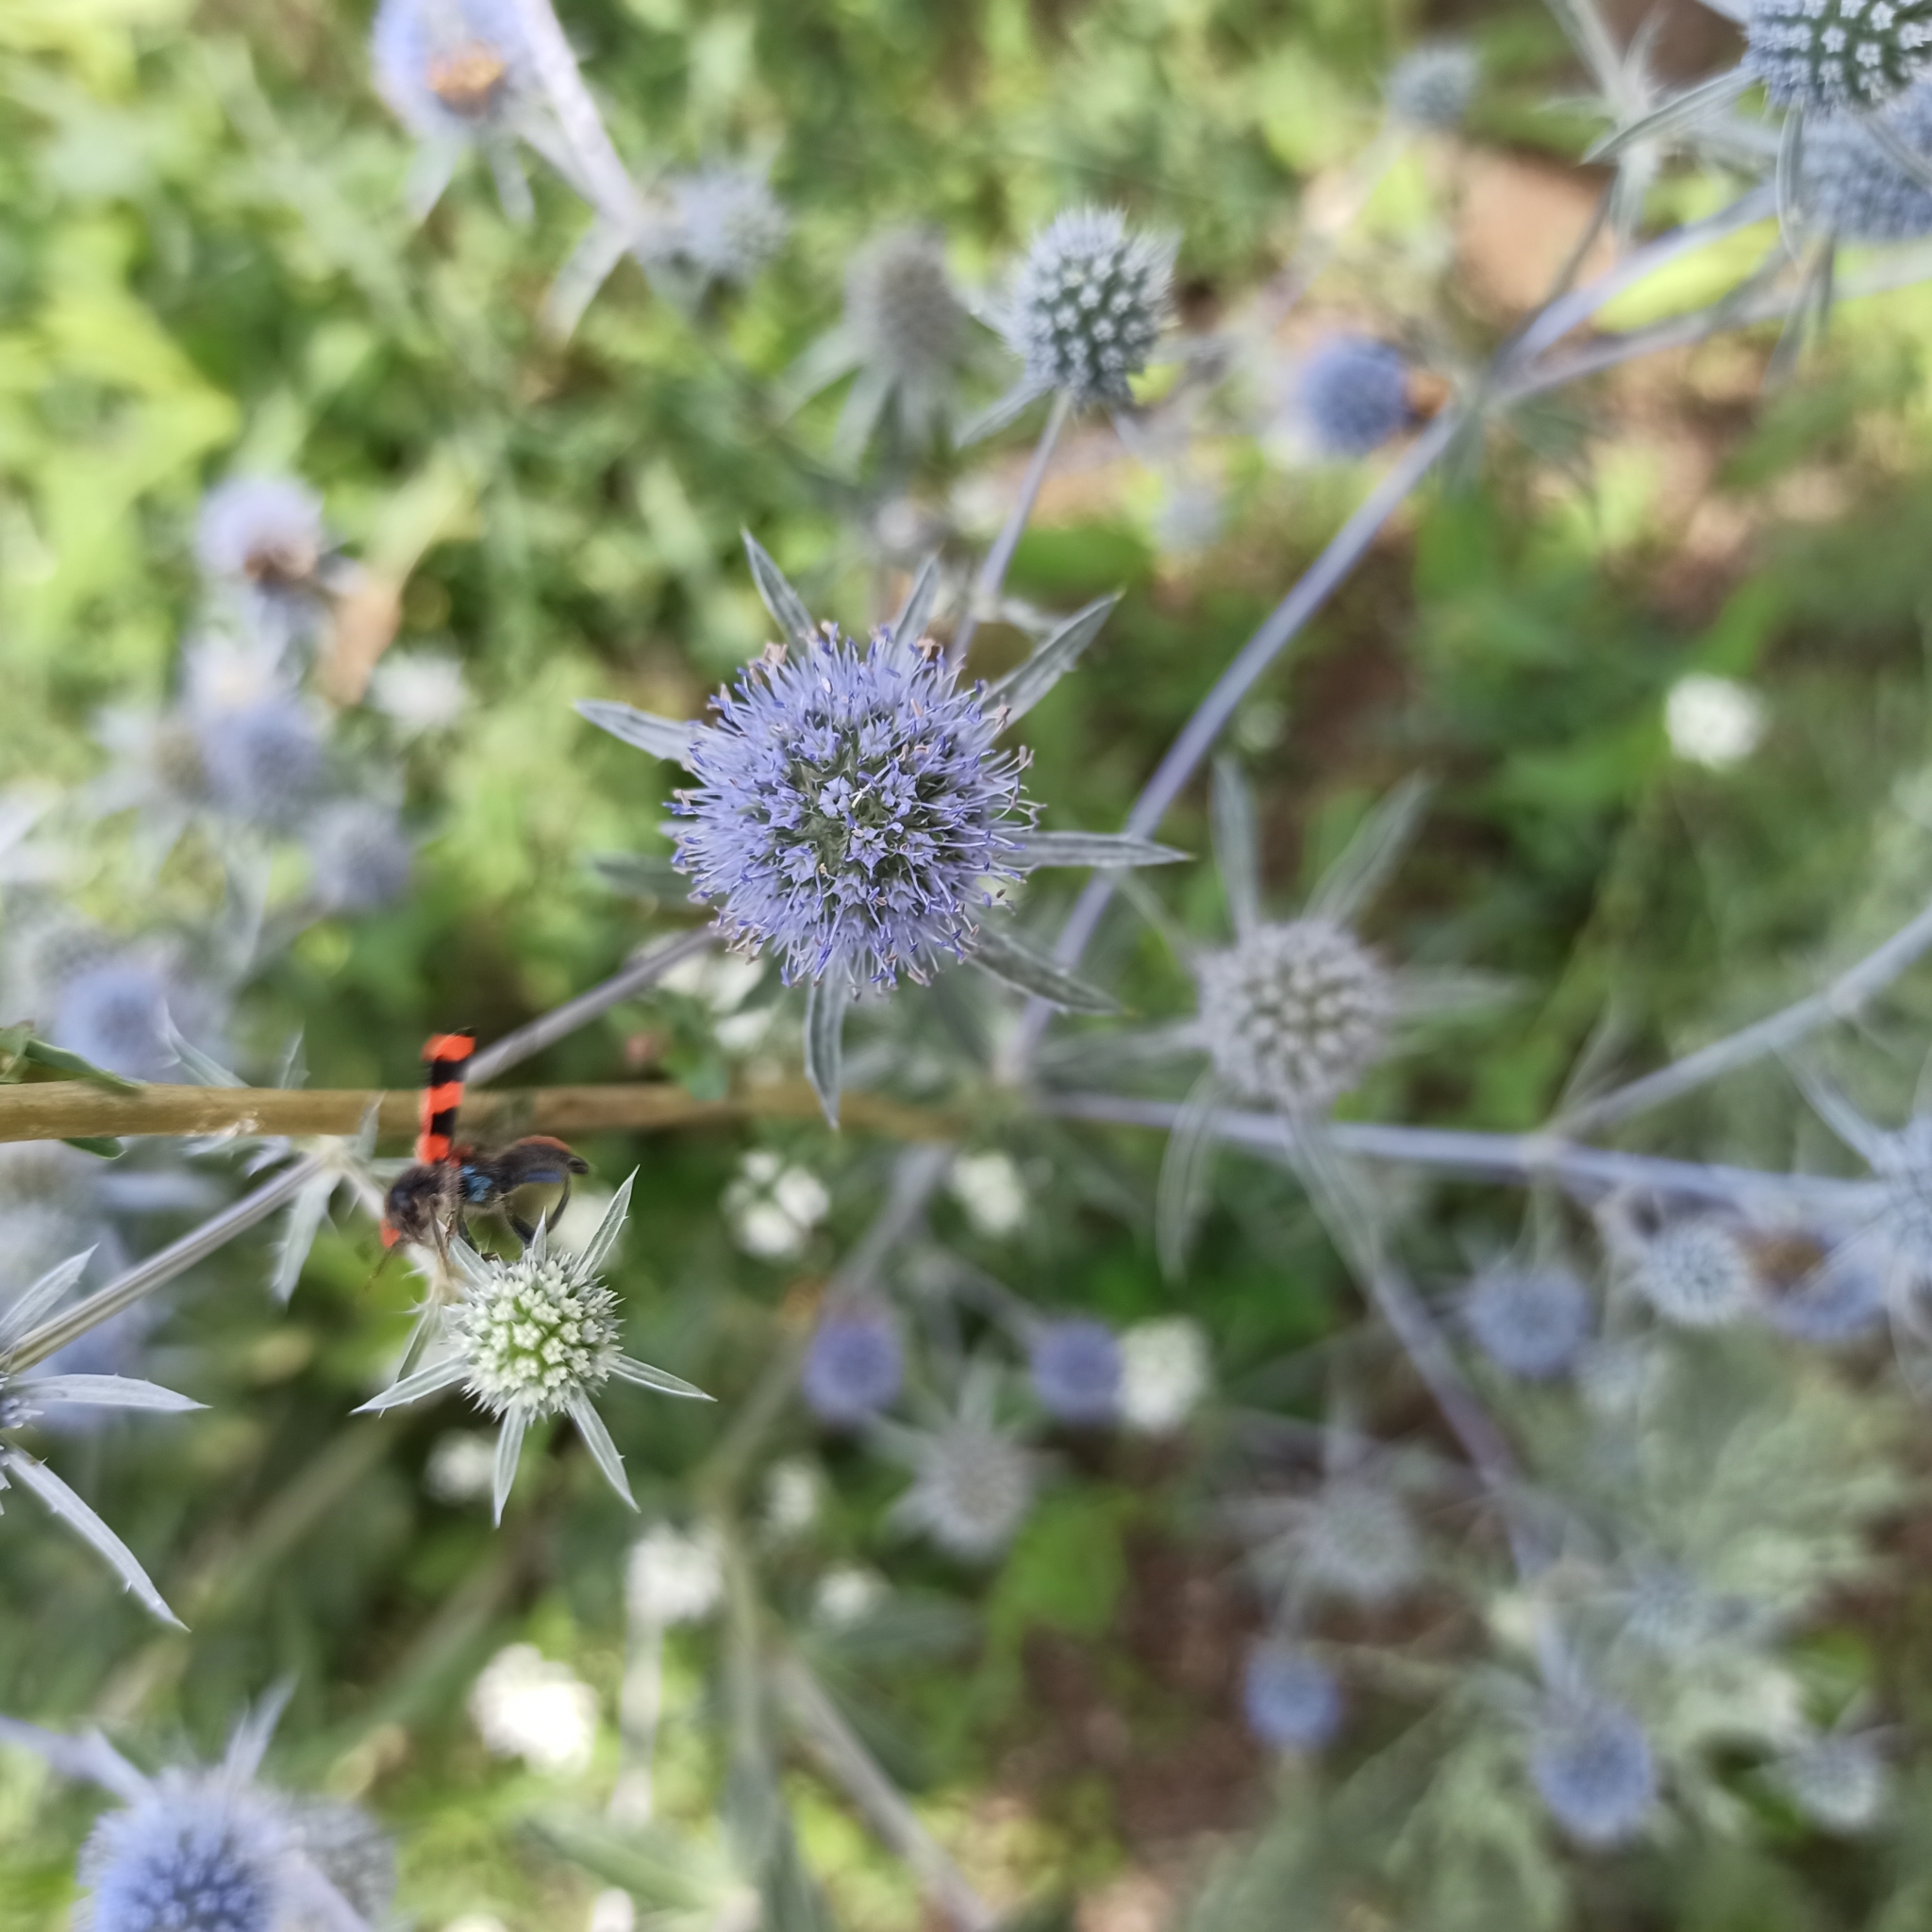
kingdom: Plantae
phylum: Tracheophyta
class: Magnoliopsida
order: Apiales
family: Apiaceae
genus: Eryngium
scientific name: Eryngium planum
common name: Blue eryngo
